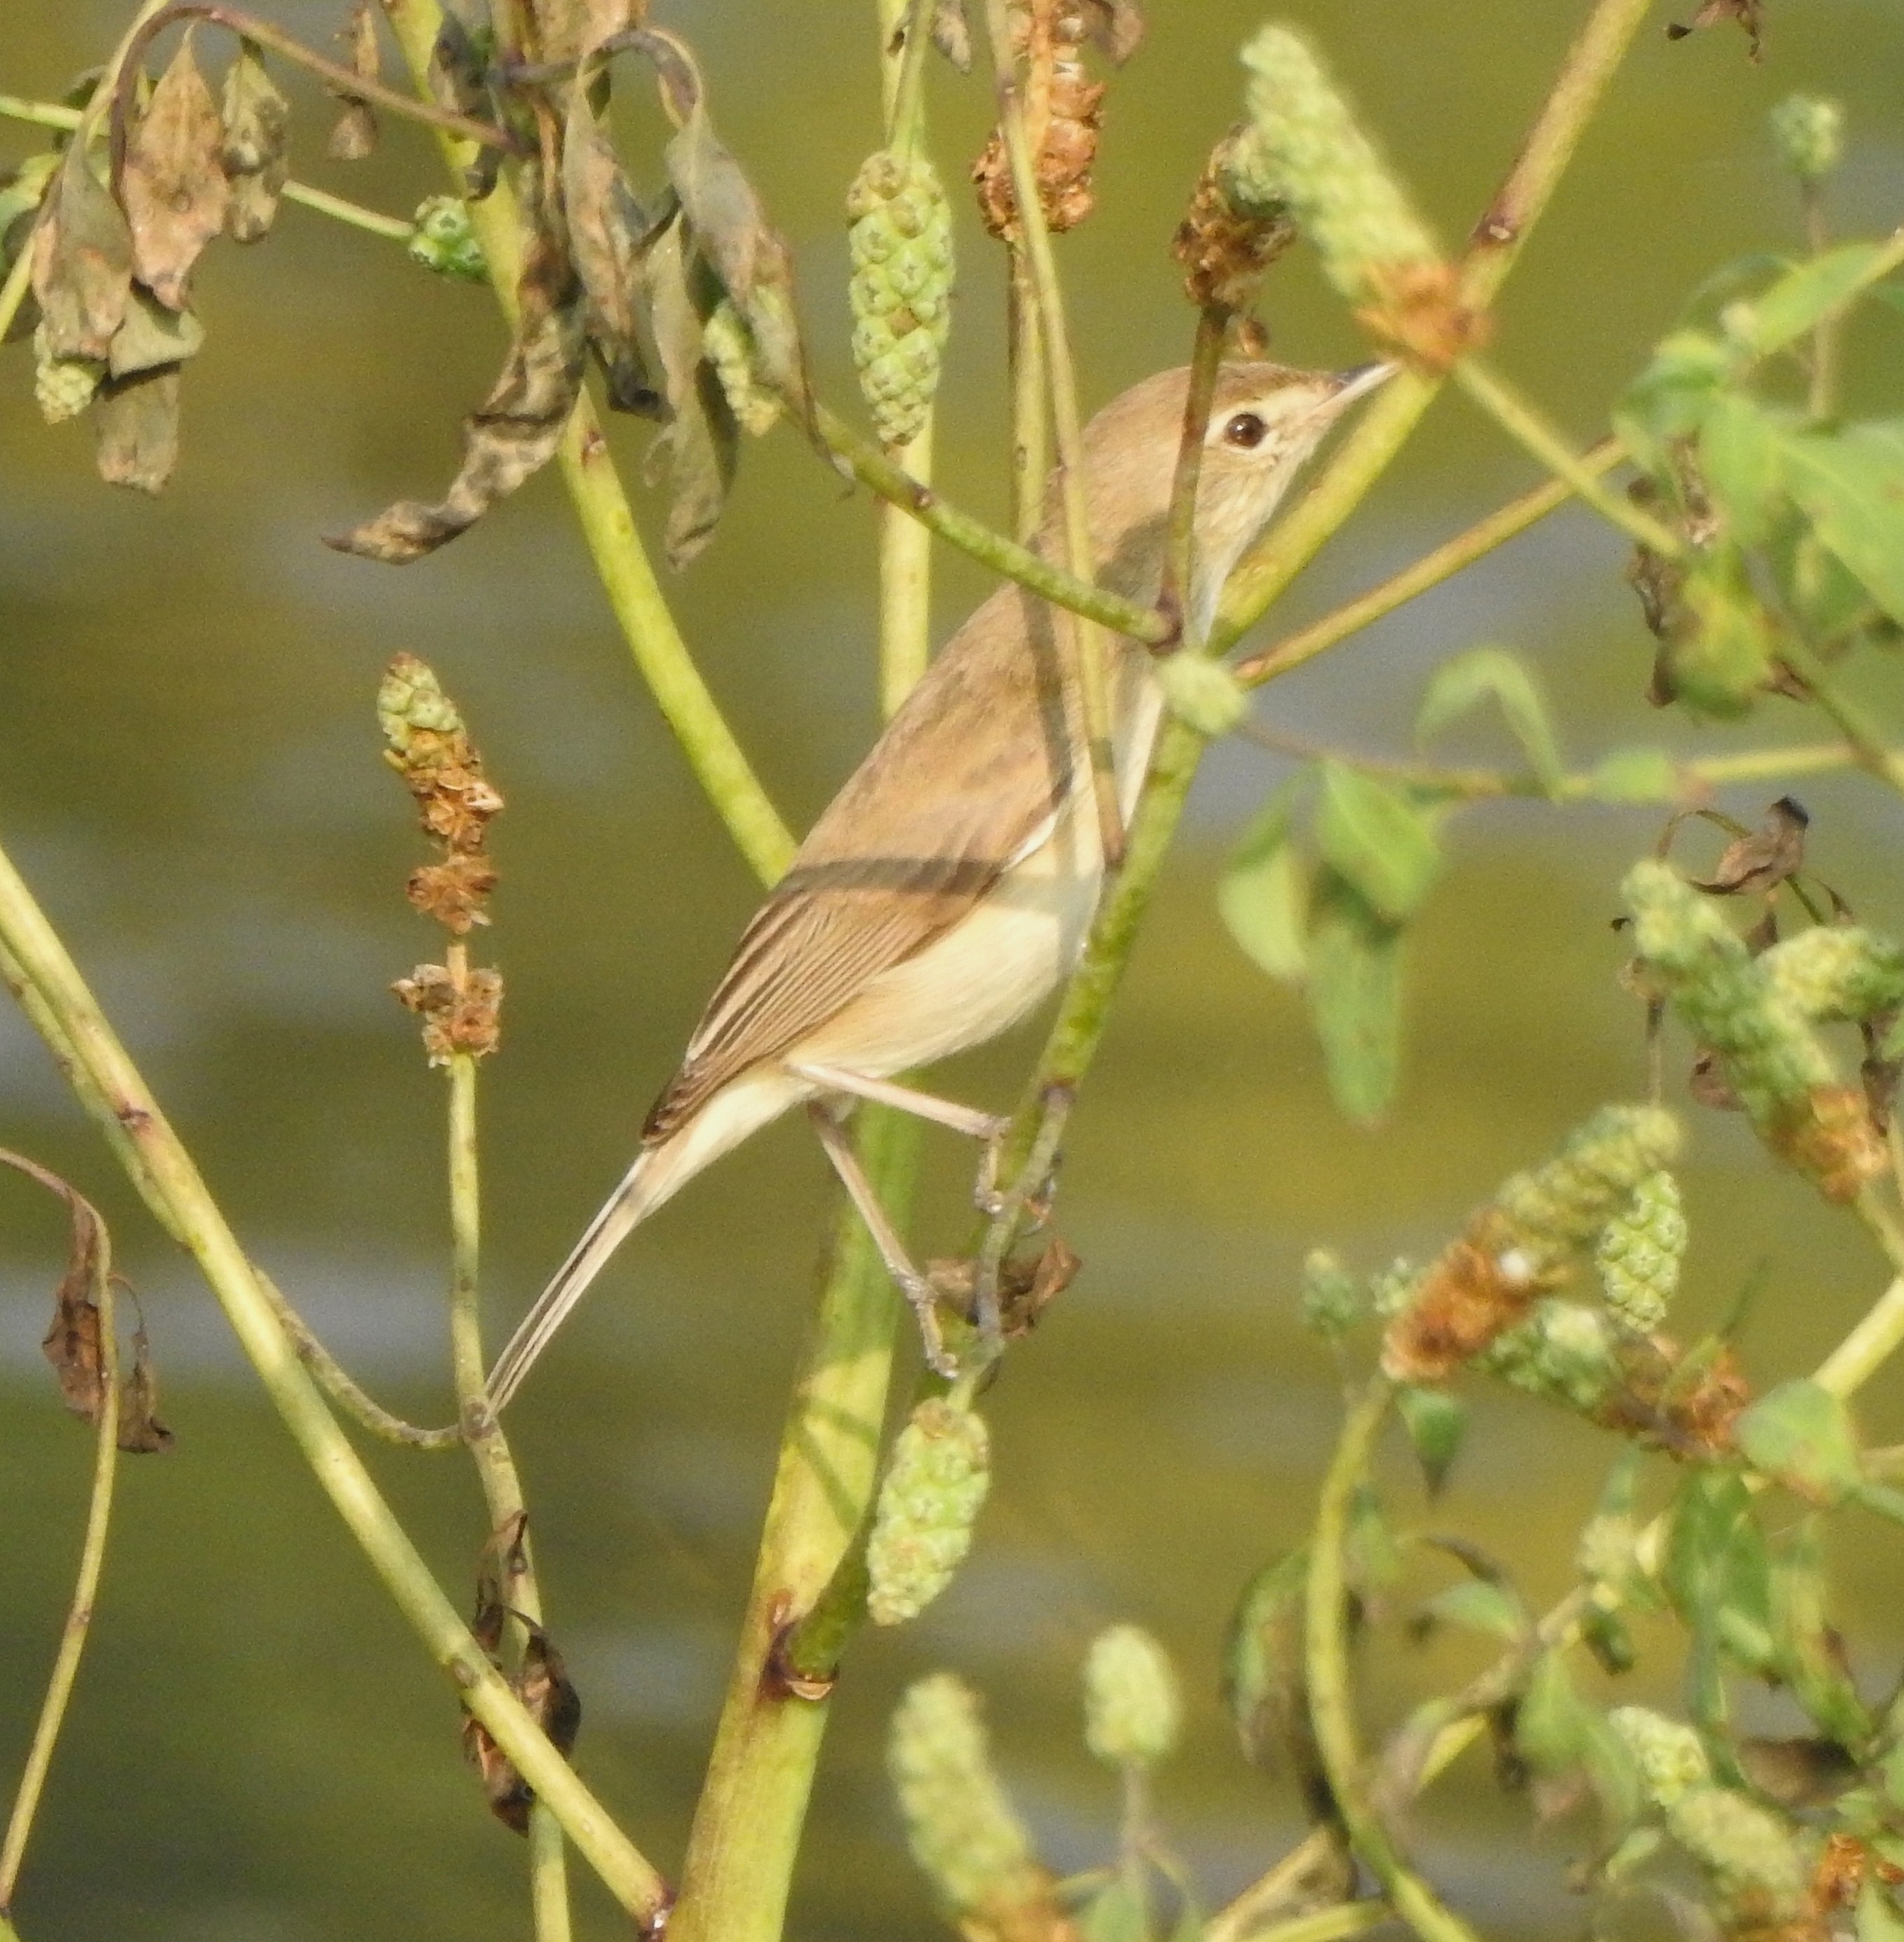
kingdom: Animalia
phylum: Chordata
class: Aves
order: Passeriformes
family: Acrocephalidae
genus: Iduna
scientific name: Iduna caligata
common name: Booted warbler
